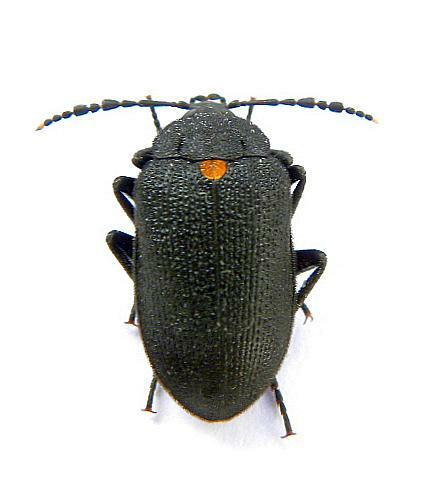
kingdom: Animalia
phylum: Arthropoda
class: Insecta
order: Coleoptera
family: Tetratomidae
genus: Penthe
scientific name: Penthe obliquata
